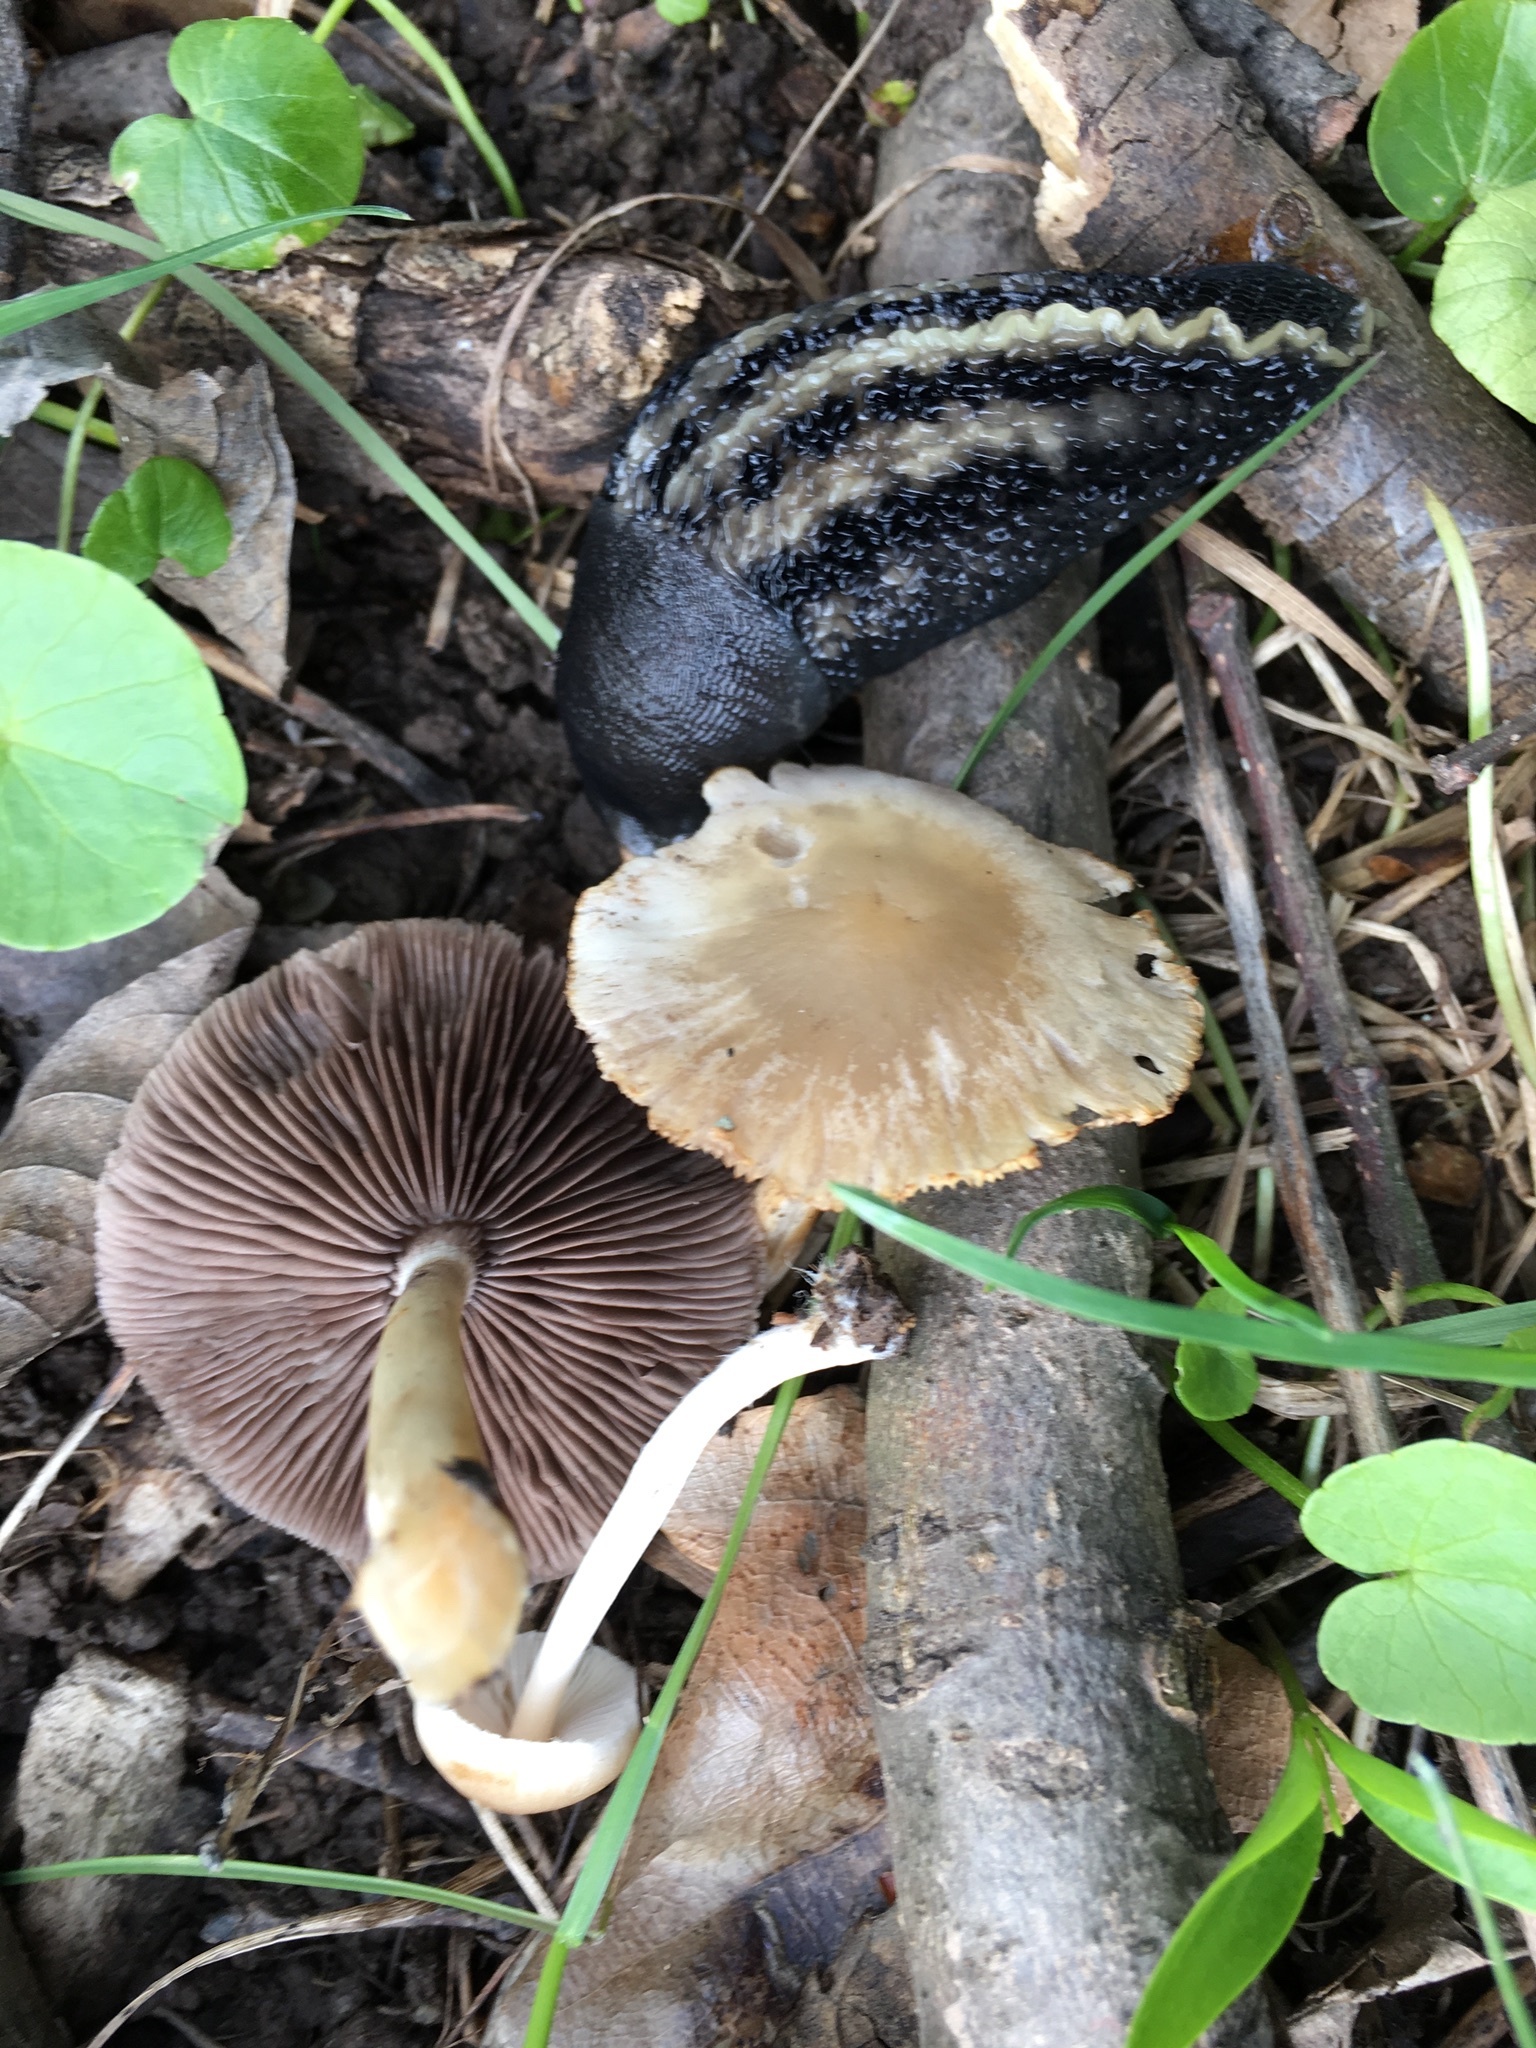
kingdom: Animalia
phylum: Mollusca
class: Gastropoda
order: Stylommatophora
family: Limacidae
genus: Limax
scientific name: Limax cinereoniger
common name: Ash-black slug
